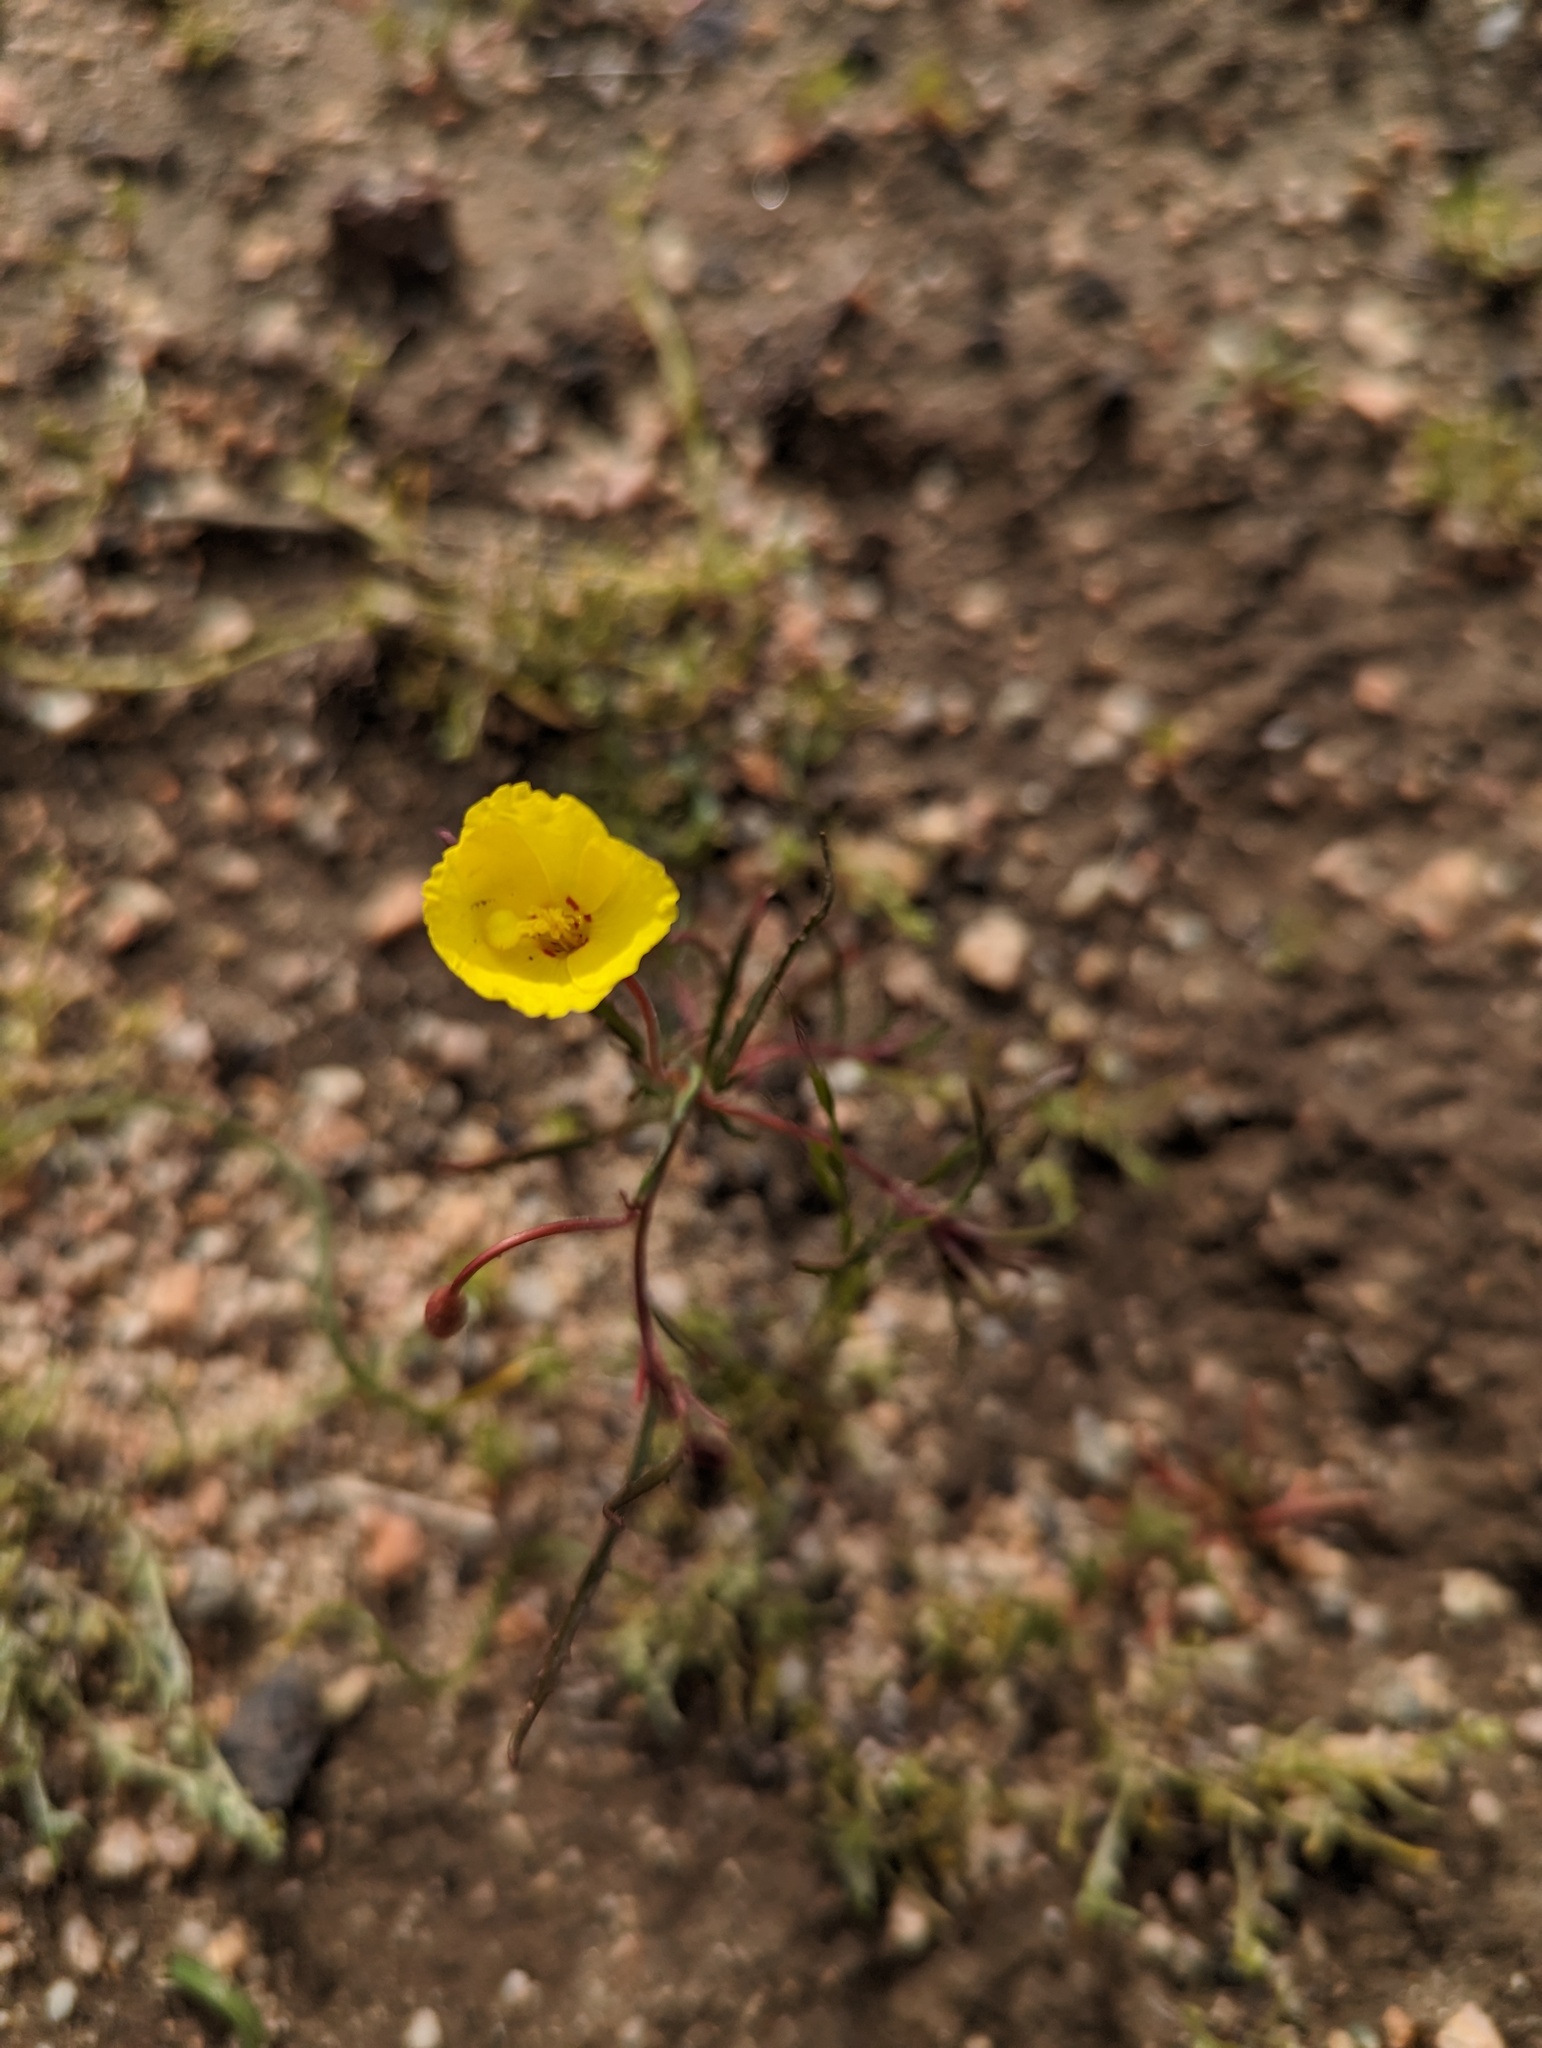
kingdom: Plantae
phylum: Tracheophyta
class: Magnoliopsida
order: Myrtales
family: Onagraceae
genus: Camissonia
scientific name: Camissonia campestris
